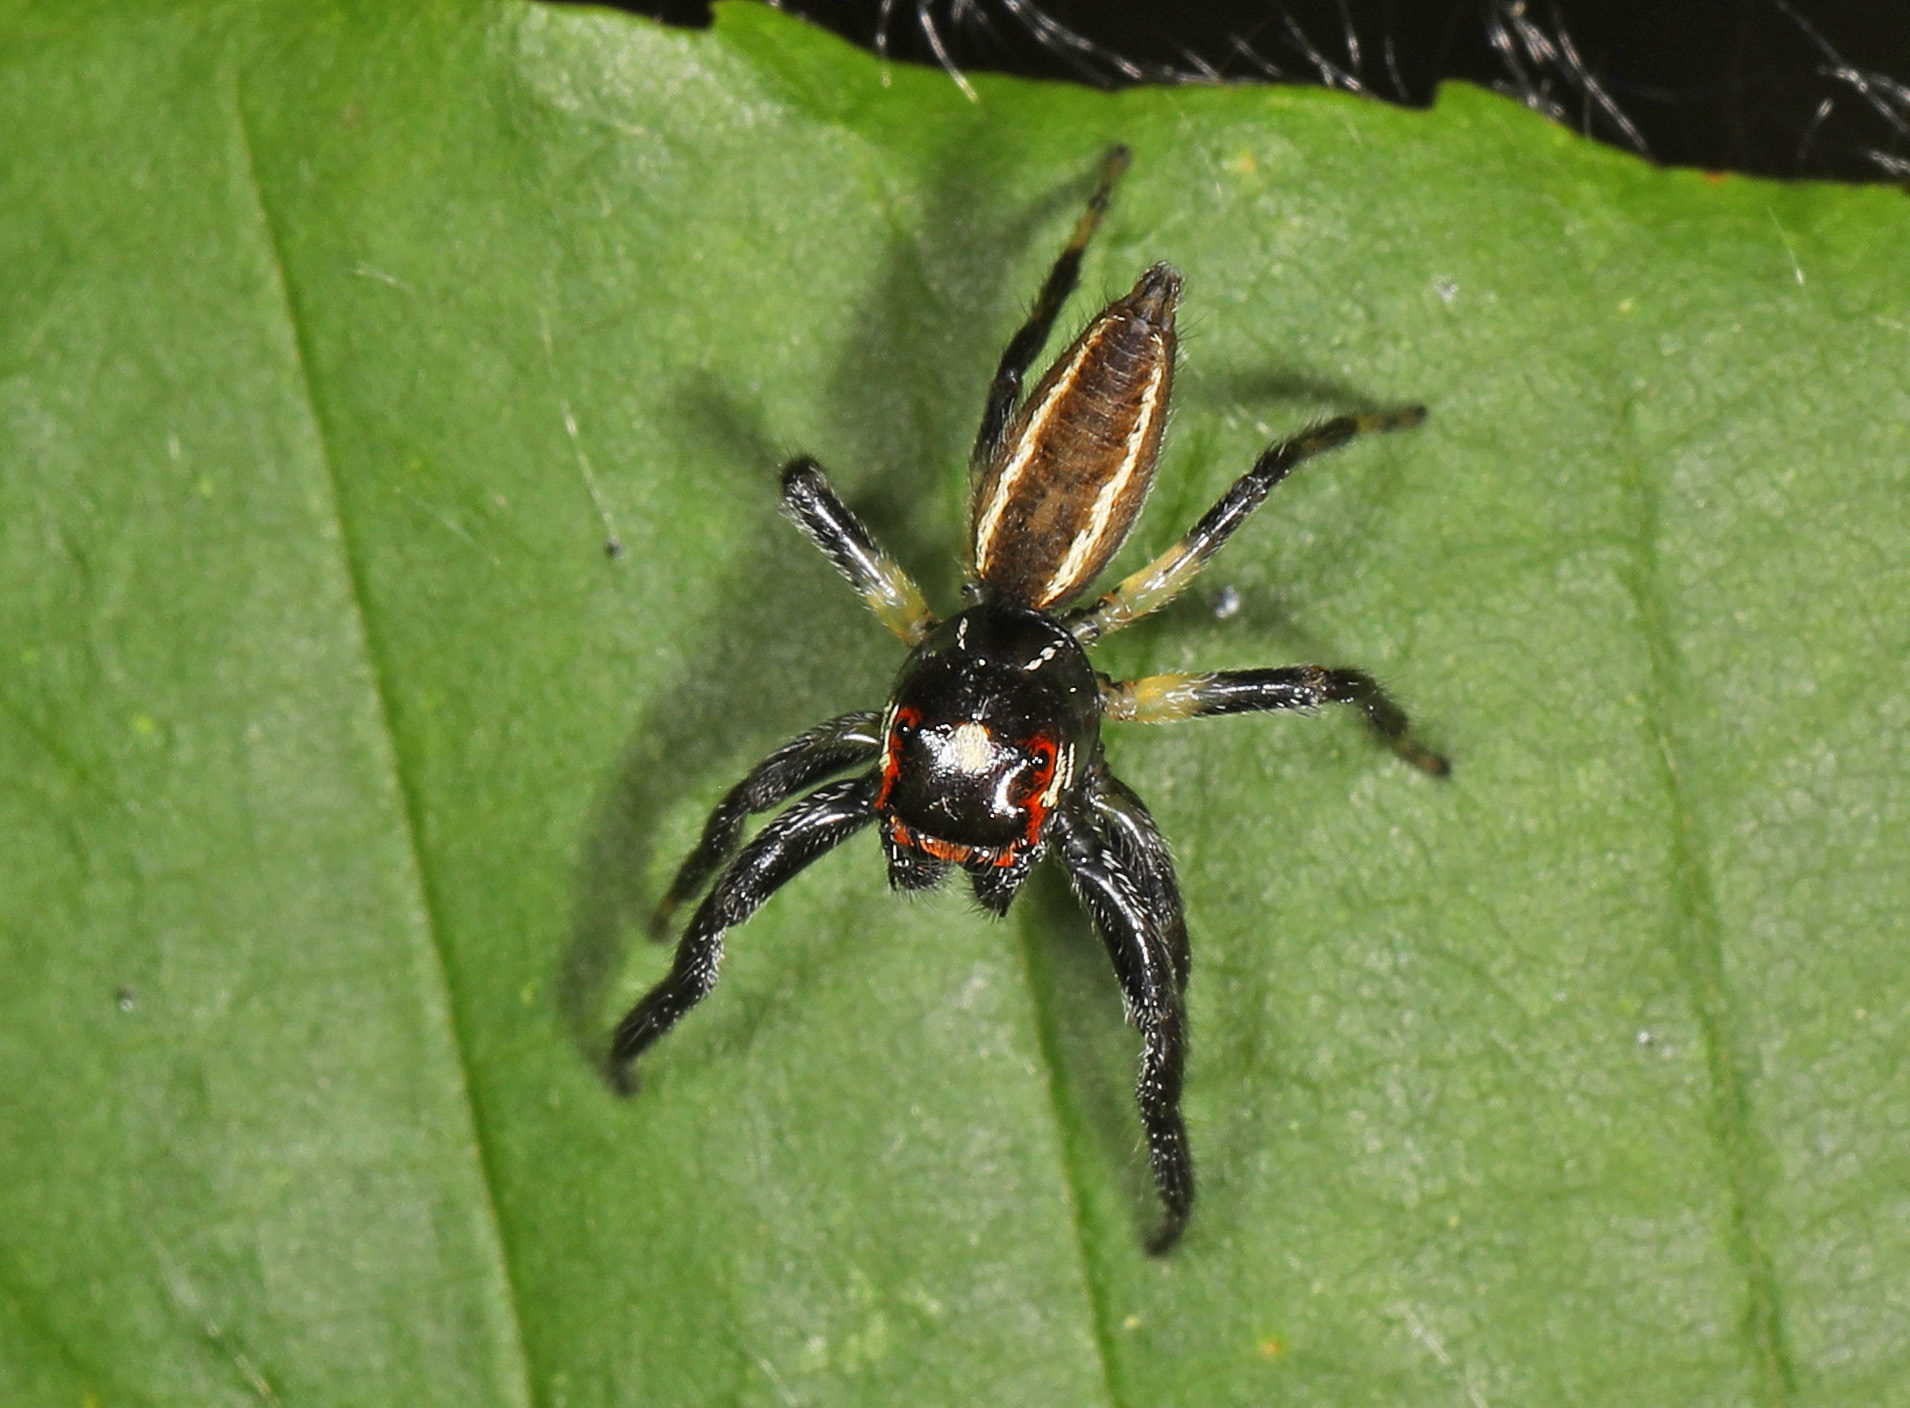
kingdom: Animalia
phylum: Arthropoda
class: Arachnida
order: Araneae
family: Salticidae
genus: Colonus
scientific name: Colonus sylvanus
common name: Jumping spiders
